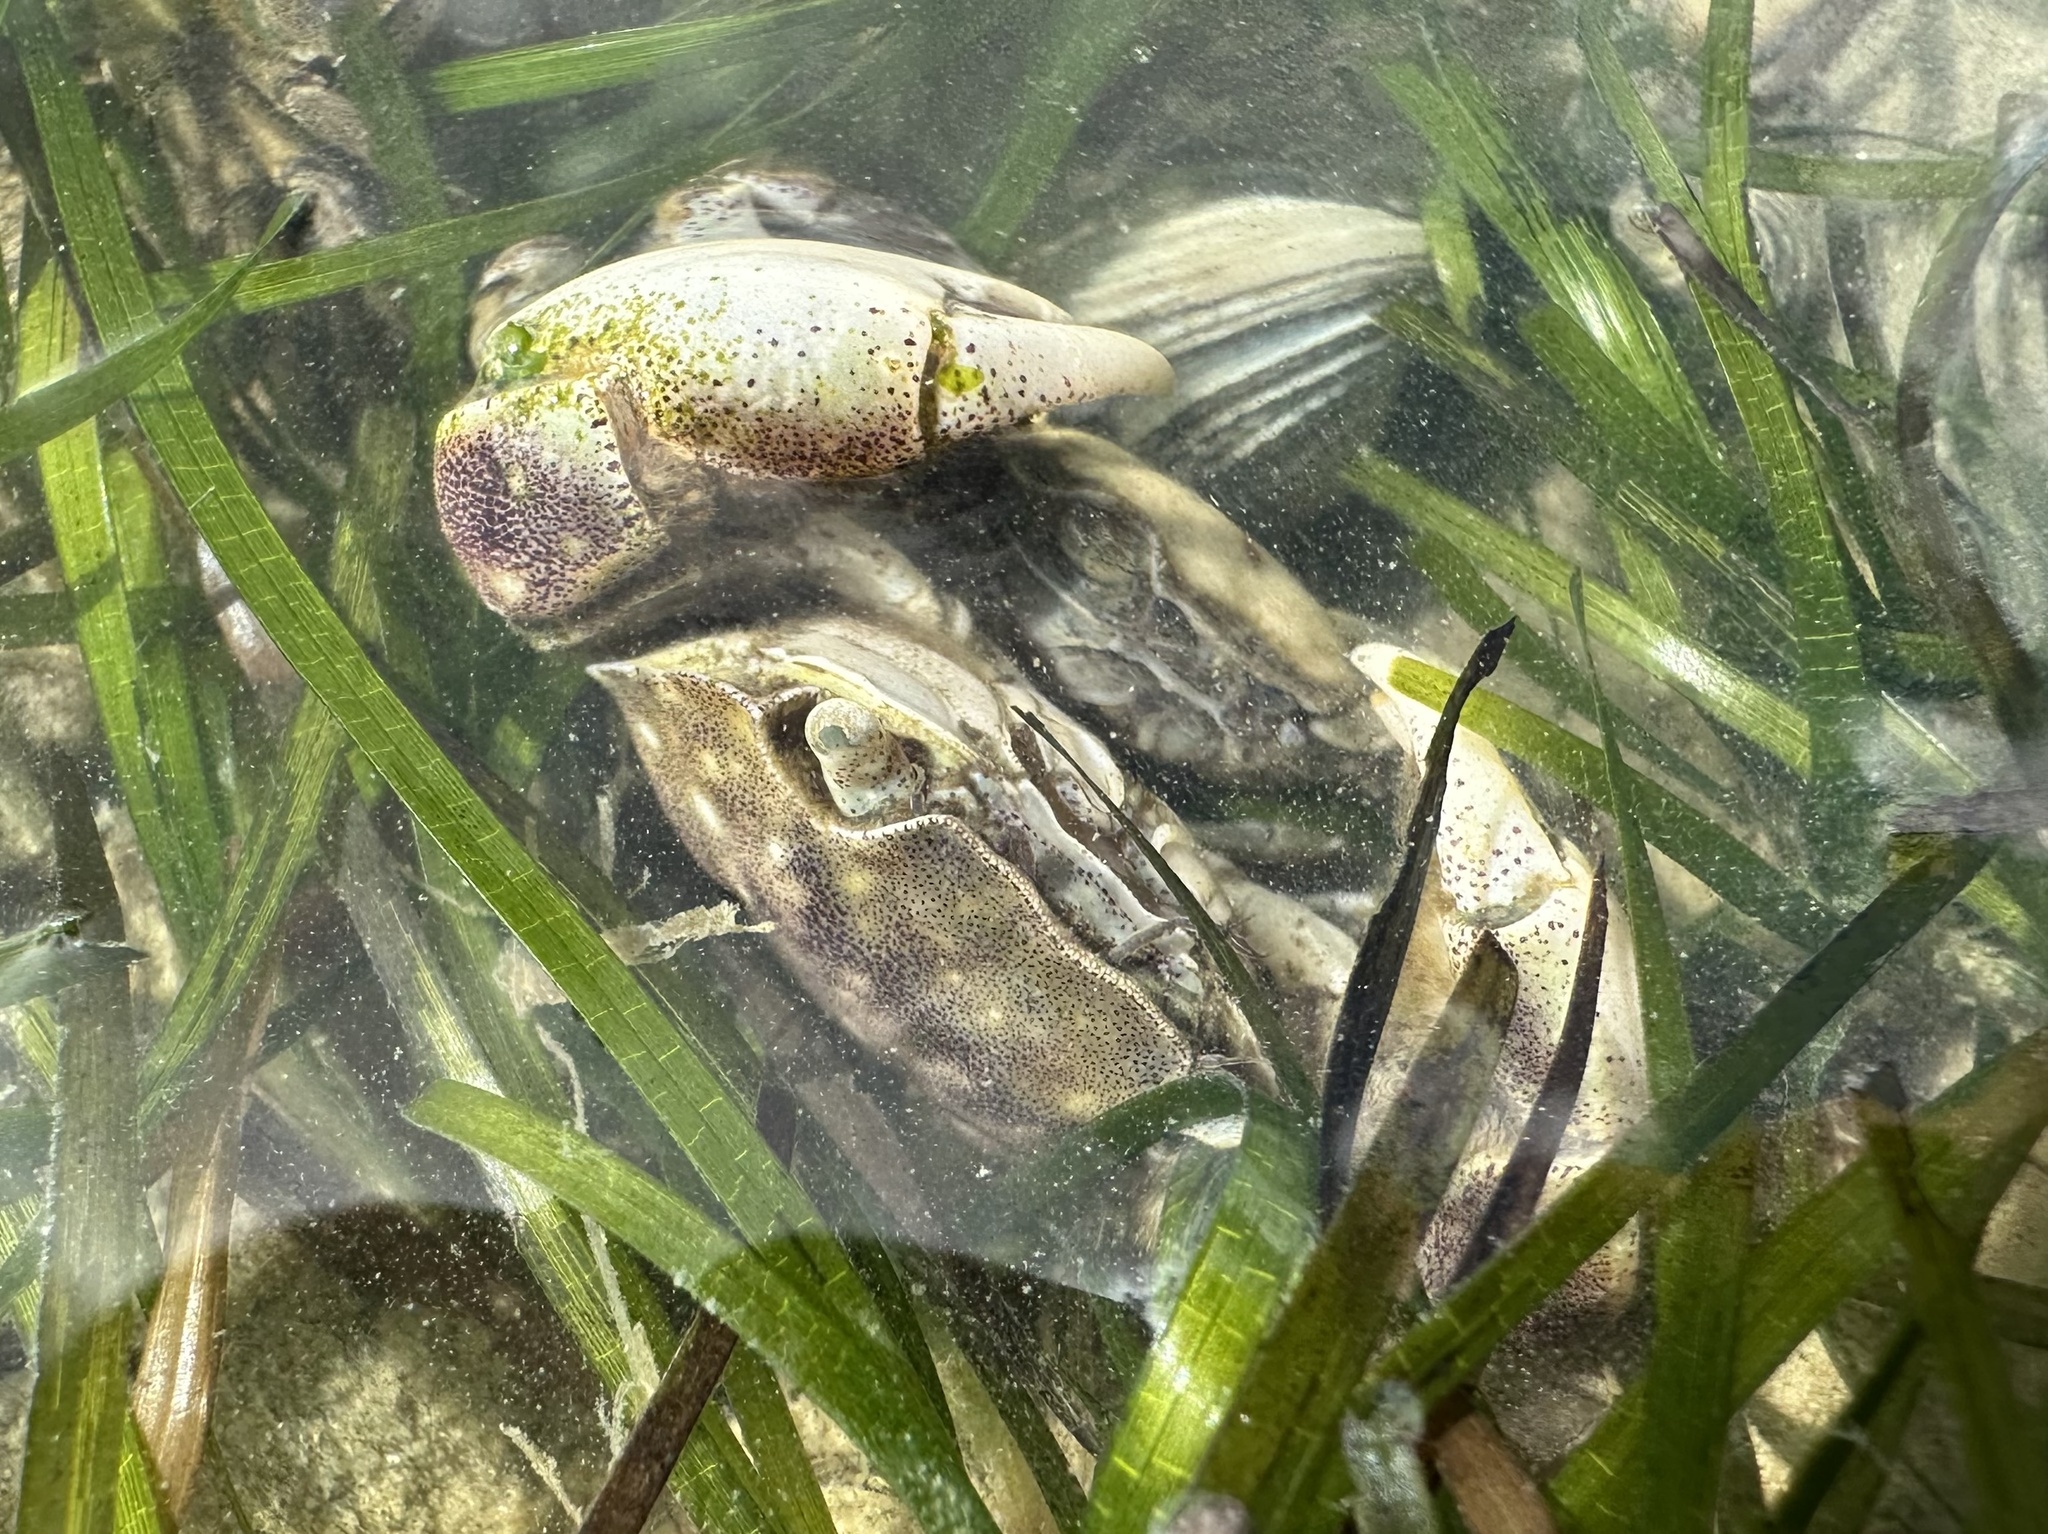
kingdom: Animalia
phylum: Arthropoda
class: Malacostraca
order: Decapoda
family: Varunidae
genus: Hemigrapsus
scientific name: Hemigrapsus crenulatus
